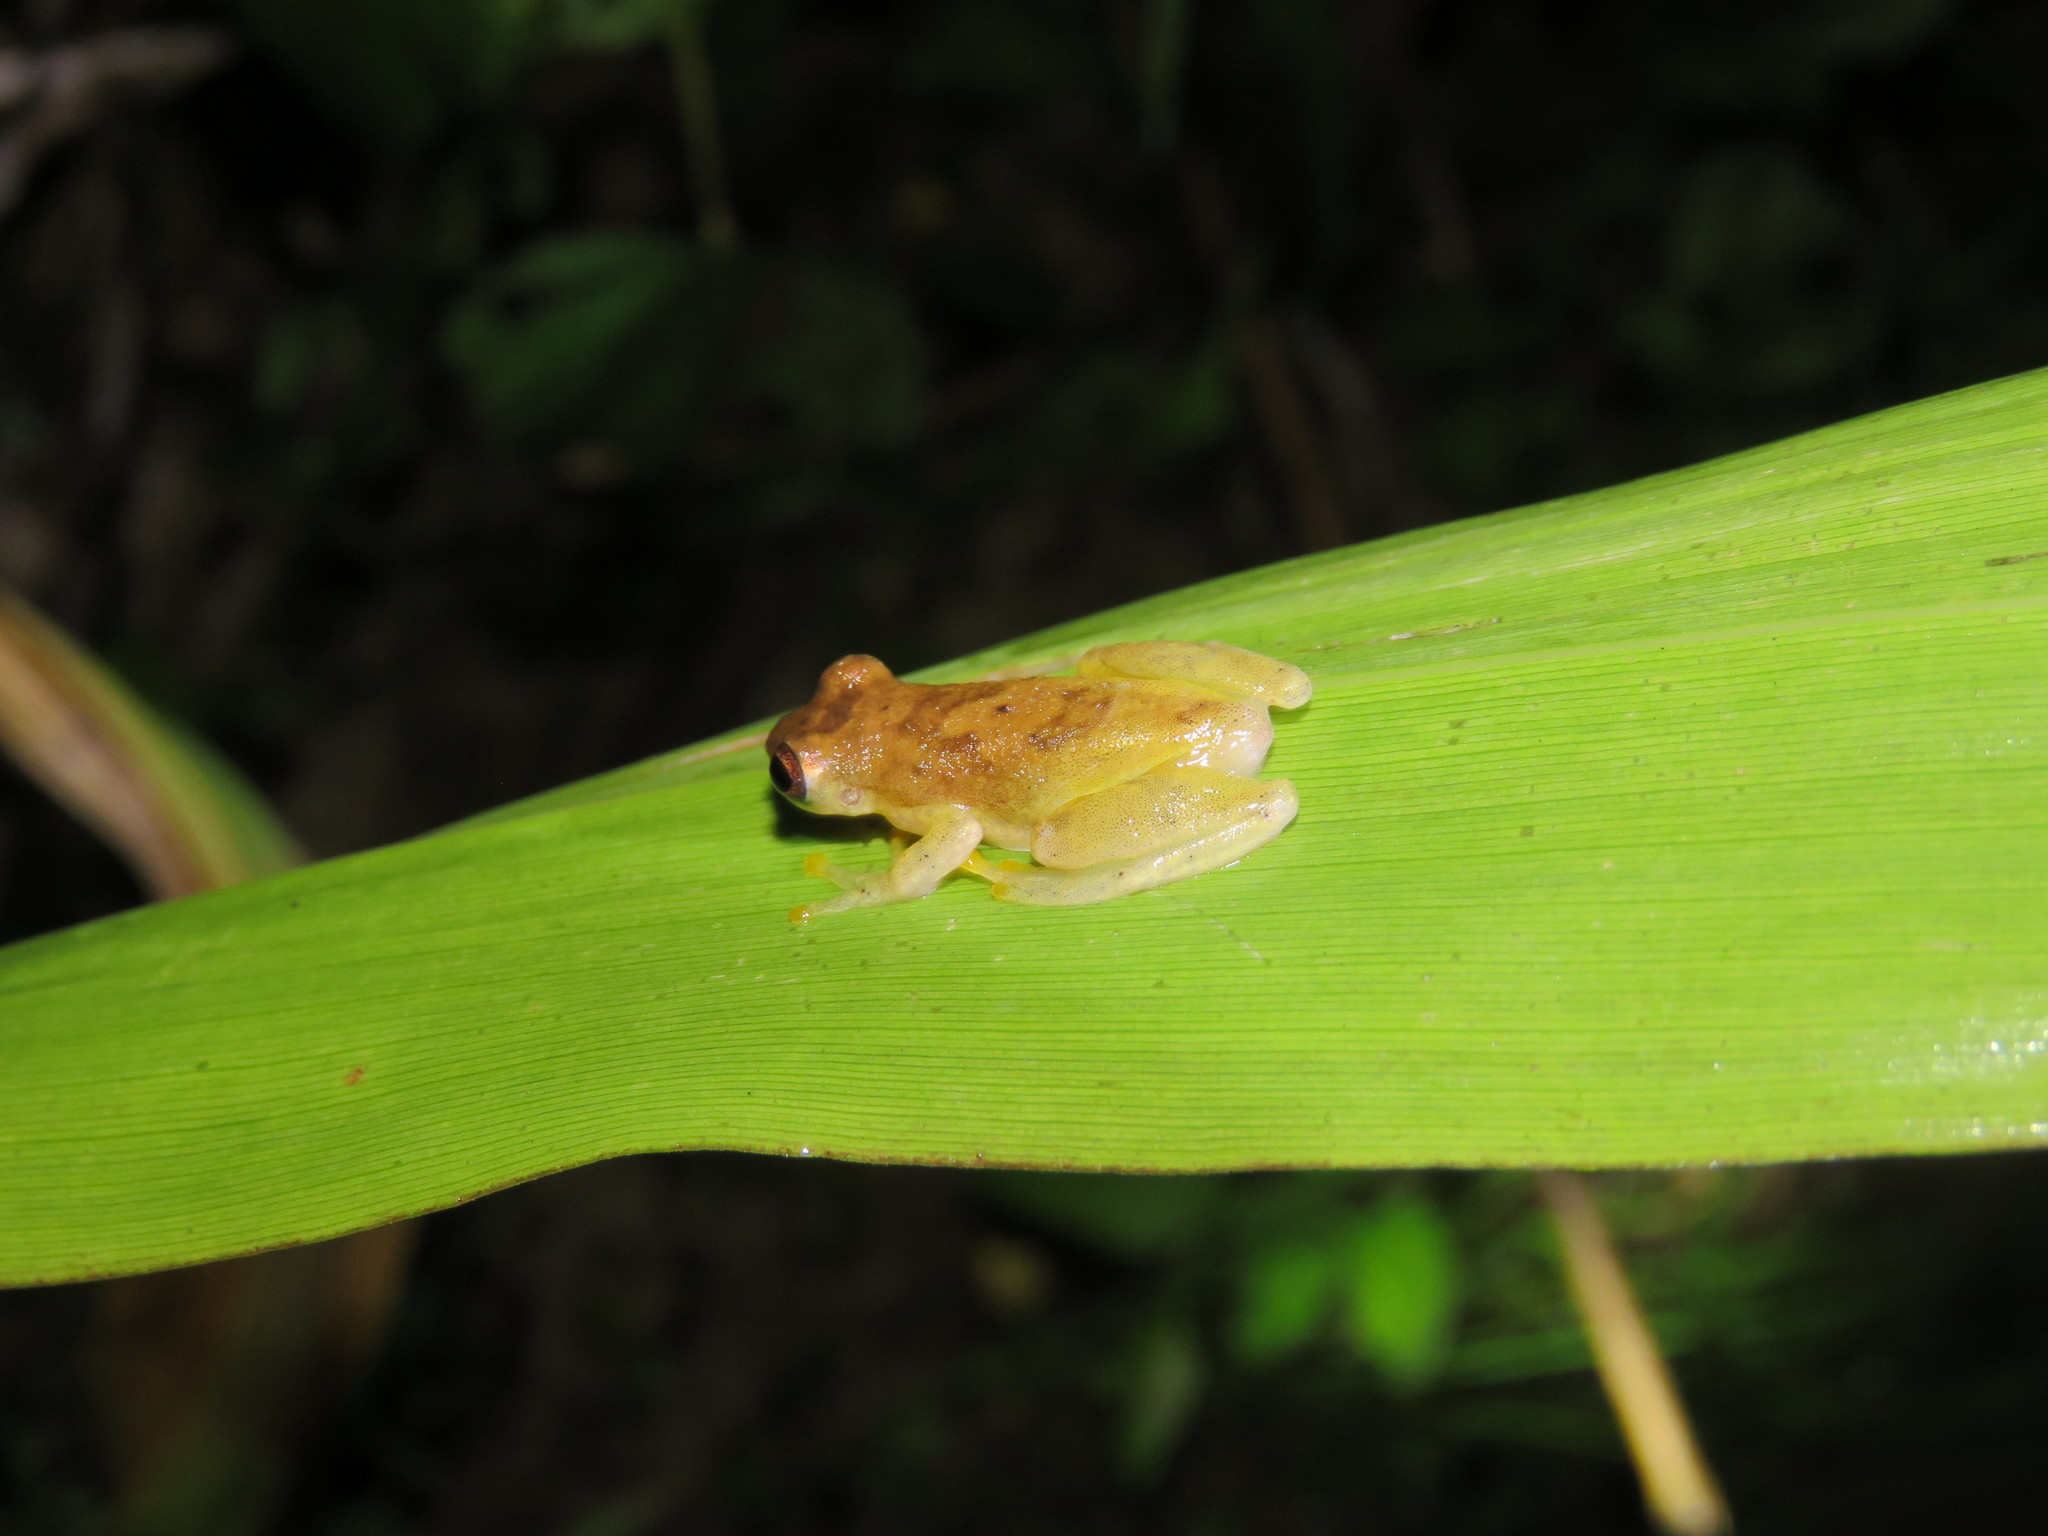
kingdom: Animalia
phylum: Chordata
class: Amphibia
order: Anura
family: Hylidae
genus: Dendropsophus
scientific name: Dendropsophus joannae
